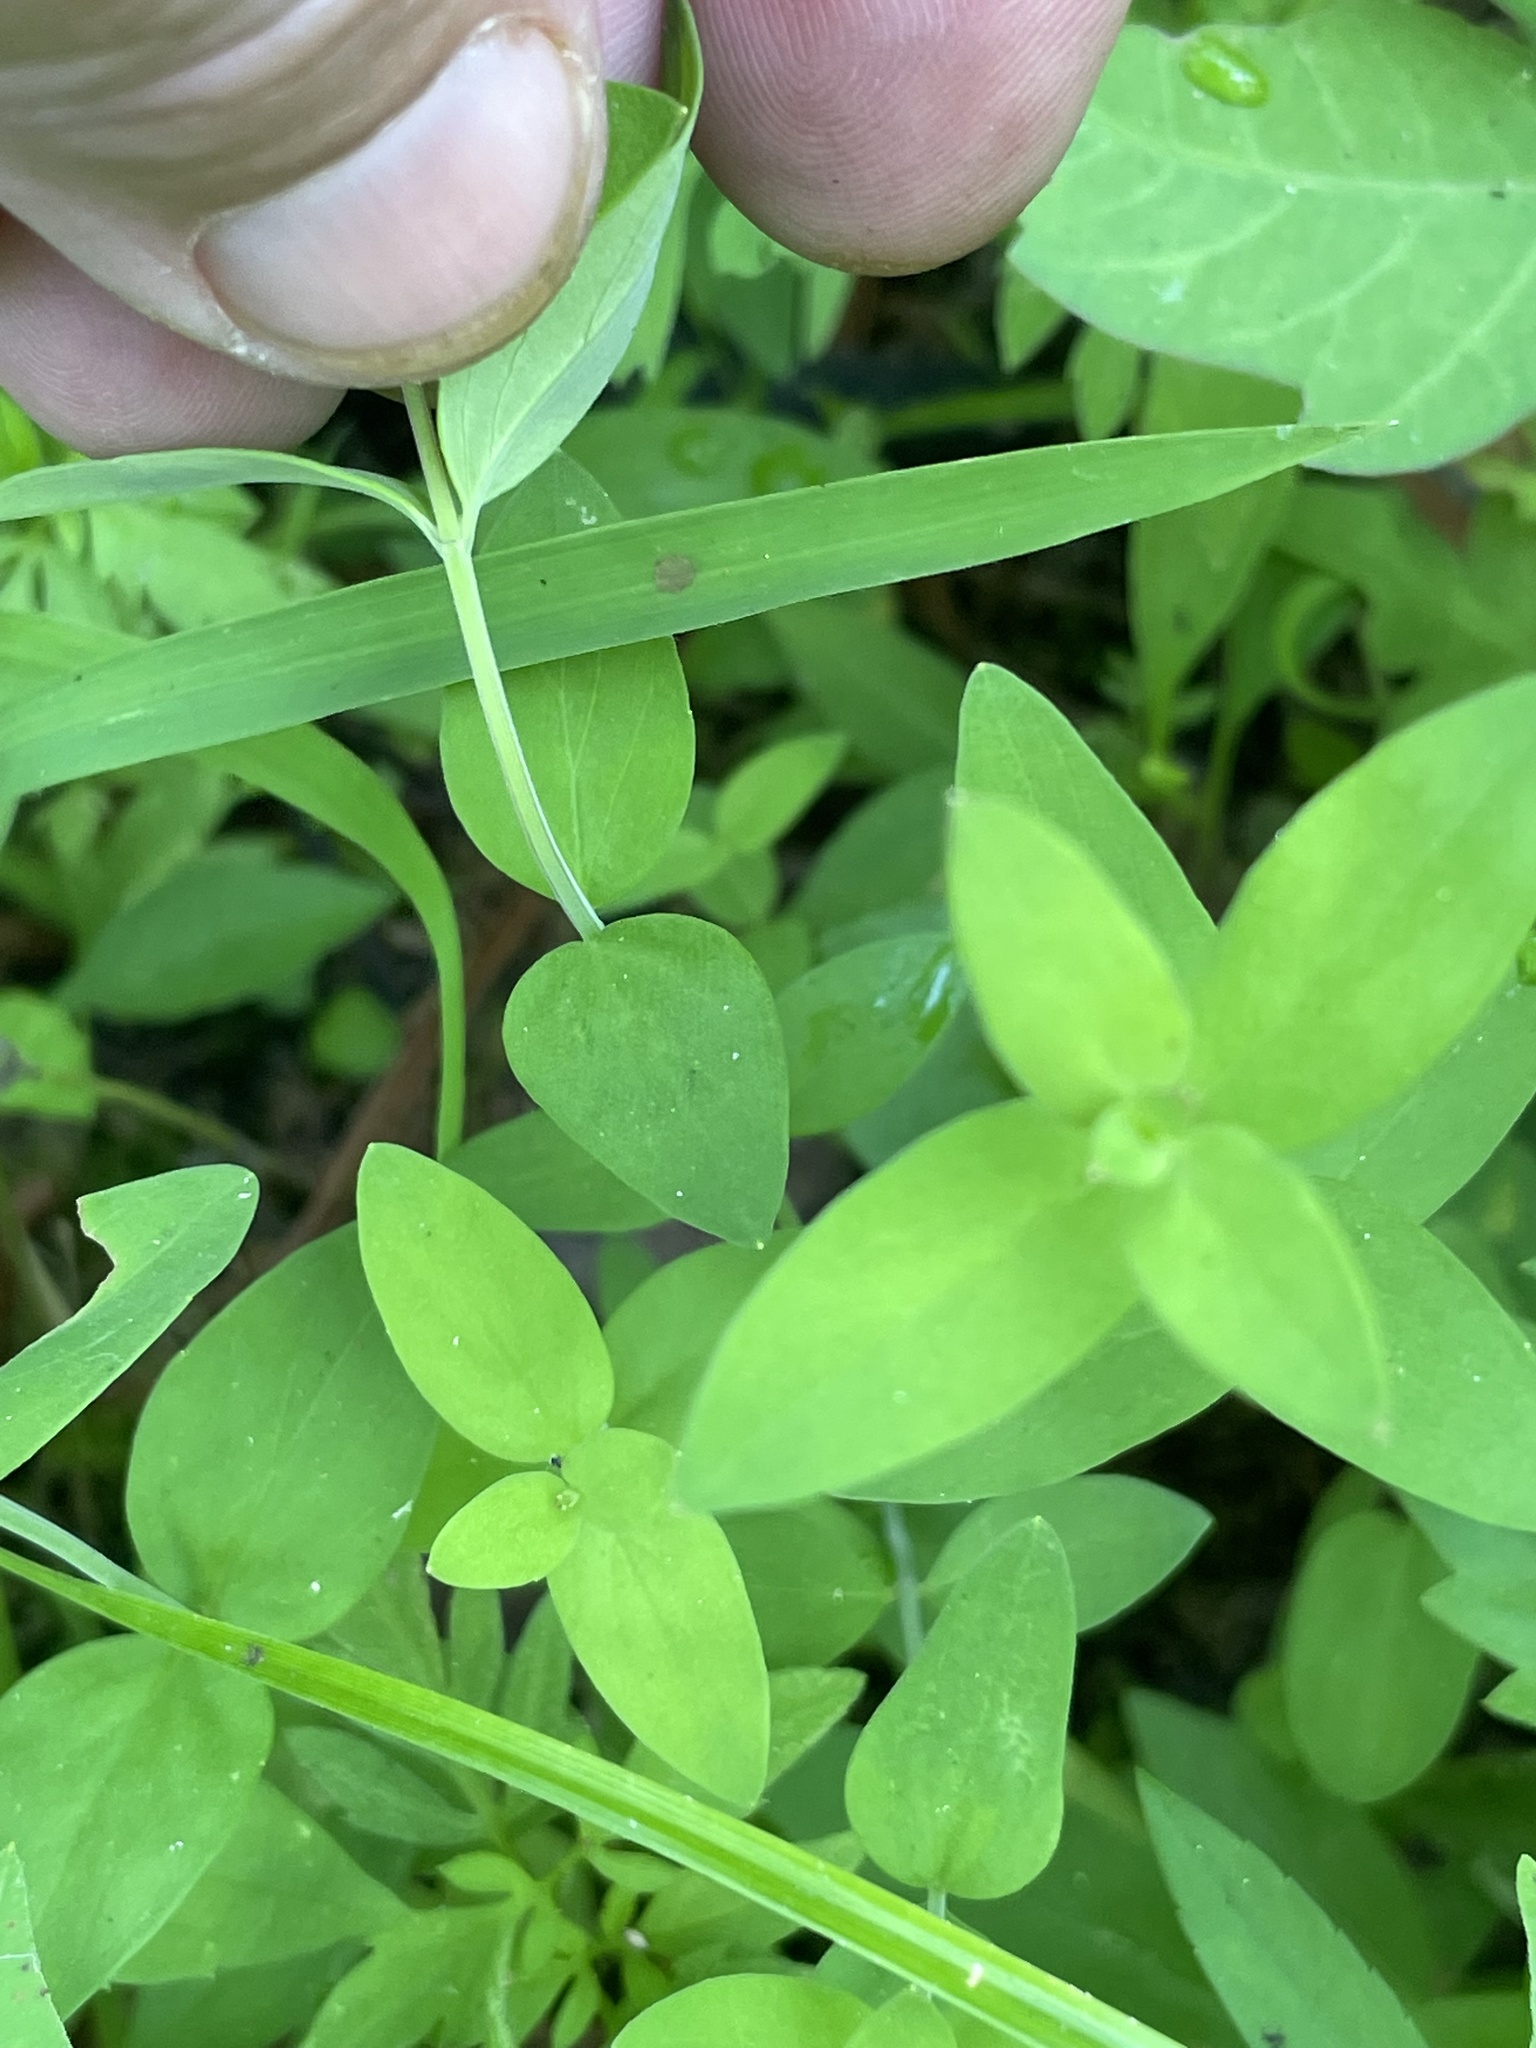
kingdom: Plantae
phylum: Tracheophyta
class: Magnoliopsida
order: Malpighiales
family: Hypericaceae
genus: Hypericum
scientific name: Hypericum mutilum
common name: Dwarf st. john's-wort
